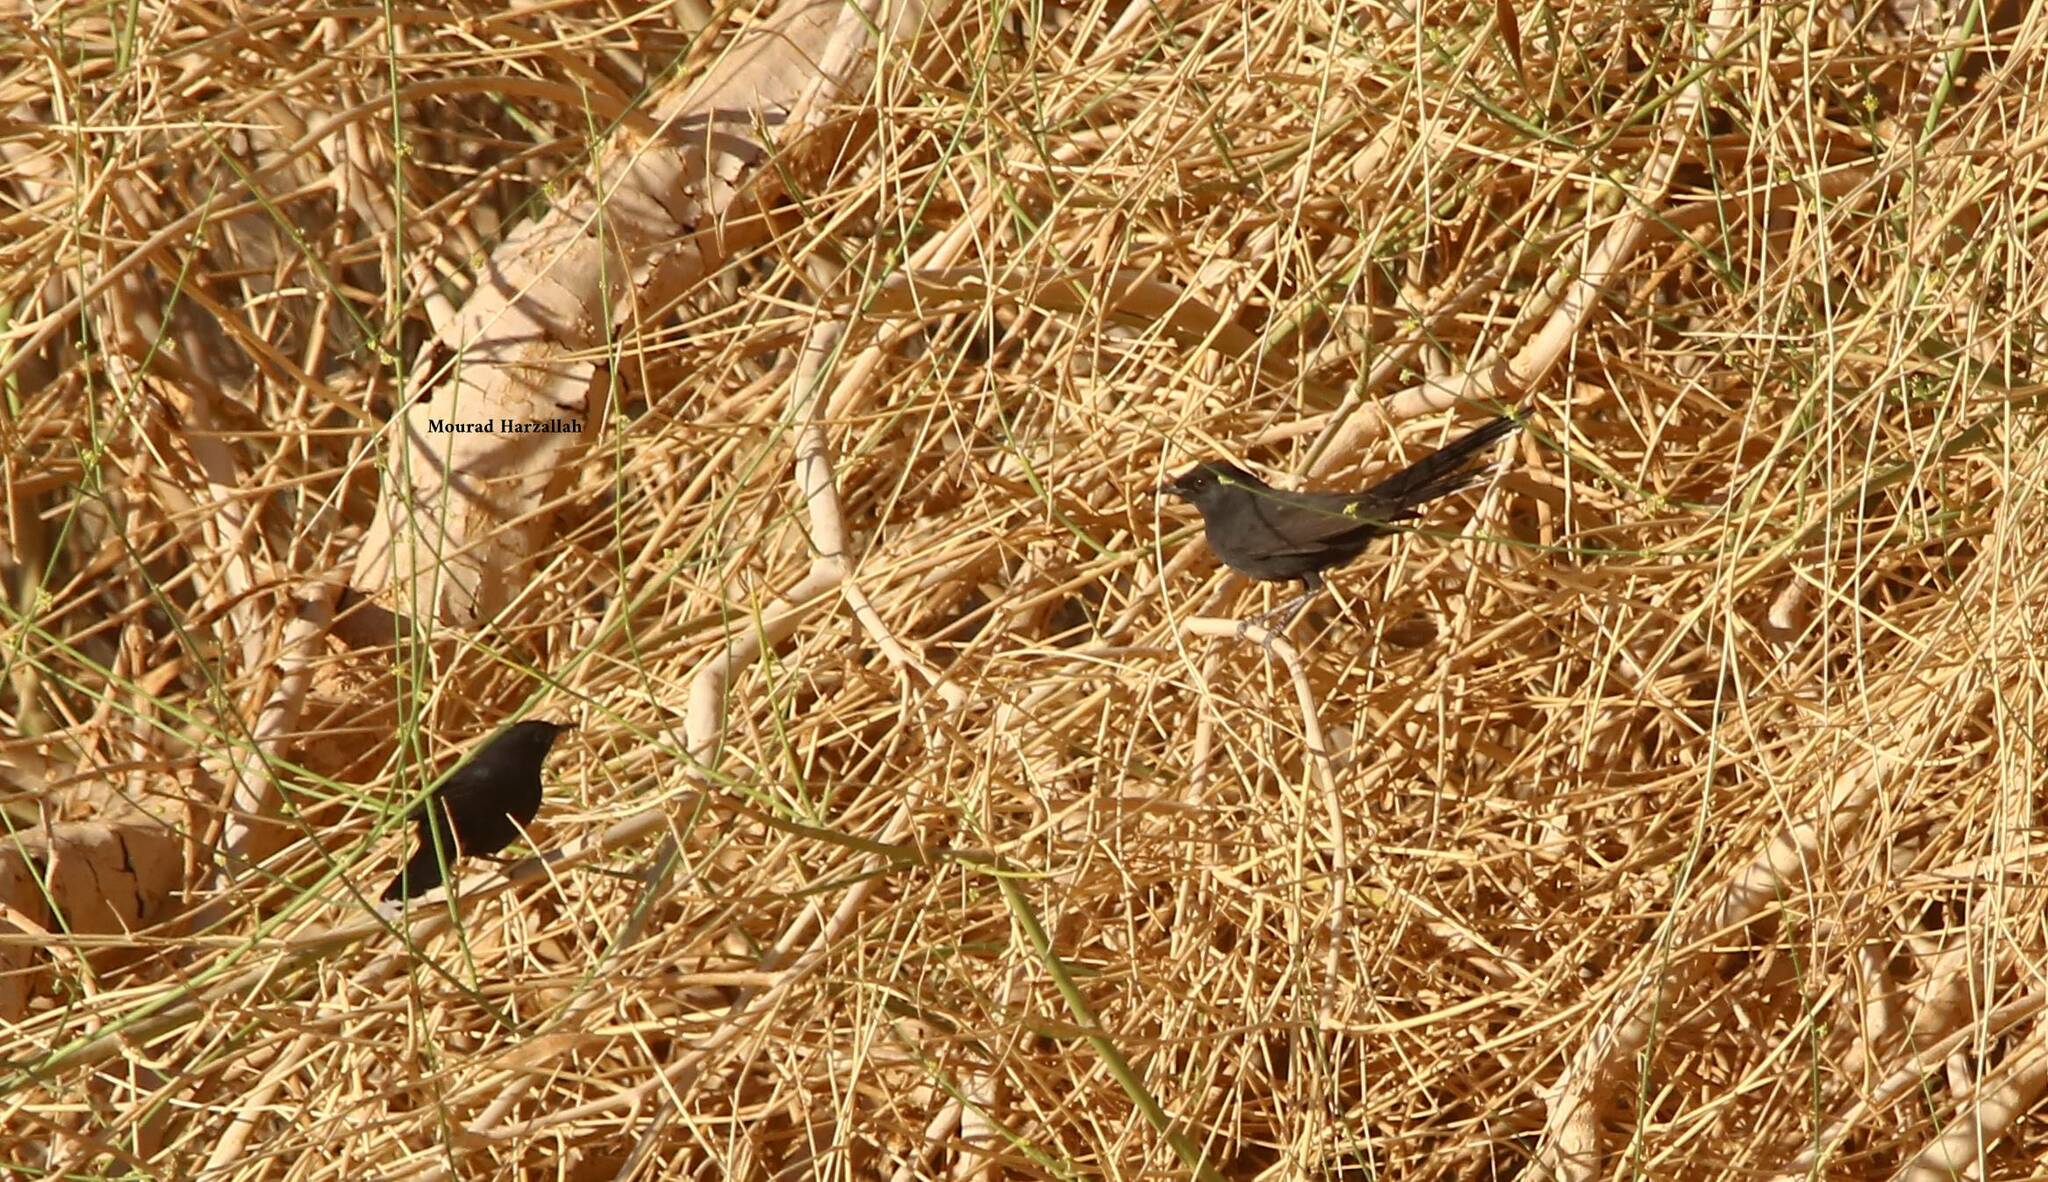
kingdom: Animalia
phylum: Chordata
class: Aves
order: Passeriformes
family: Muscicapidae
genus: Cercotrichas
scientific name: Cercotrichas podobe
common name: Black scrub robin
